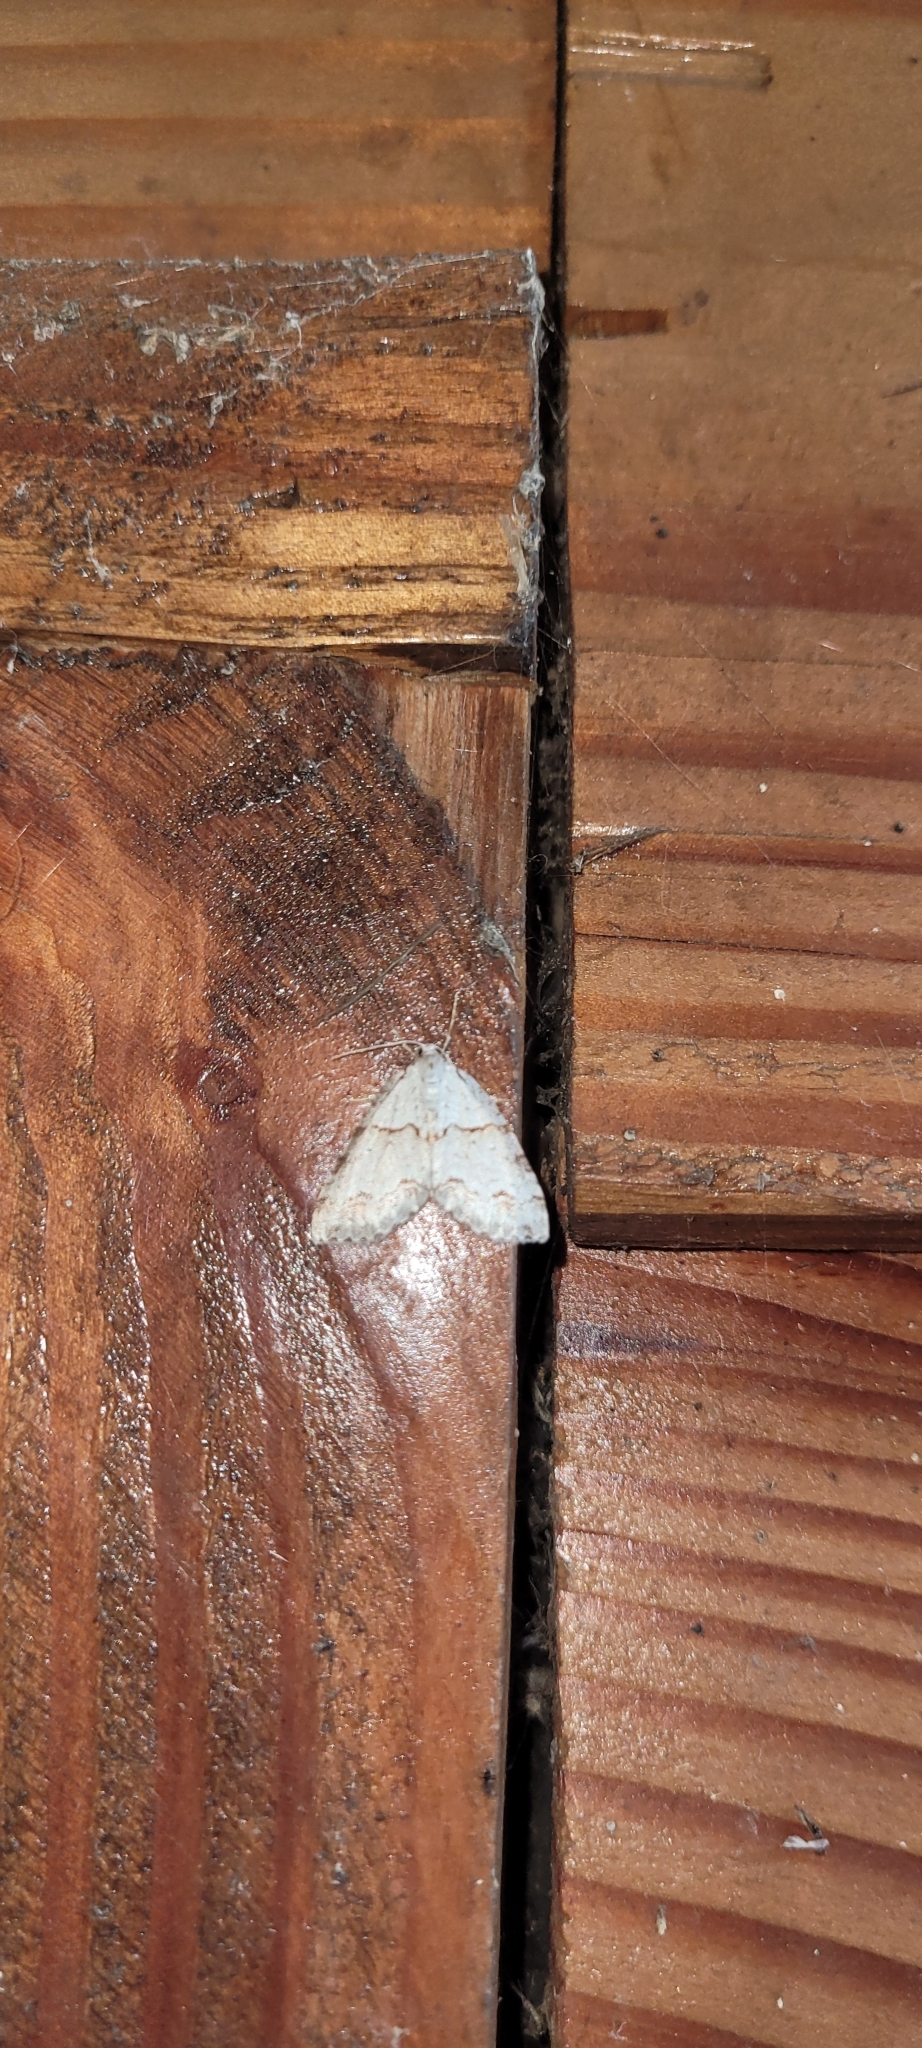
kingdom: Animalia
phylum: Arthropoda
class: Insecta
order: Lepidoptera
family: Geometridae
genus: Hoplosauris
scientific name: Hoplosauris macarenae
